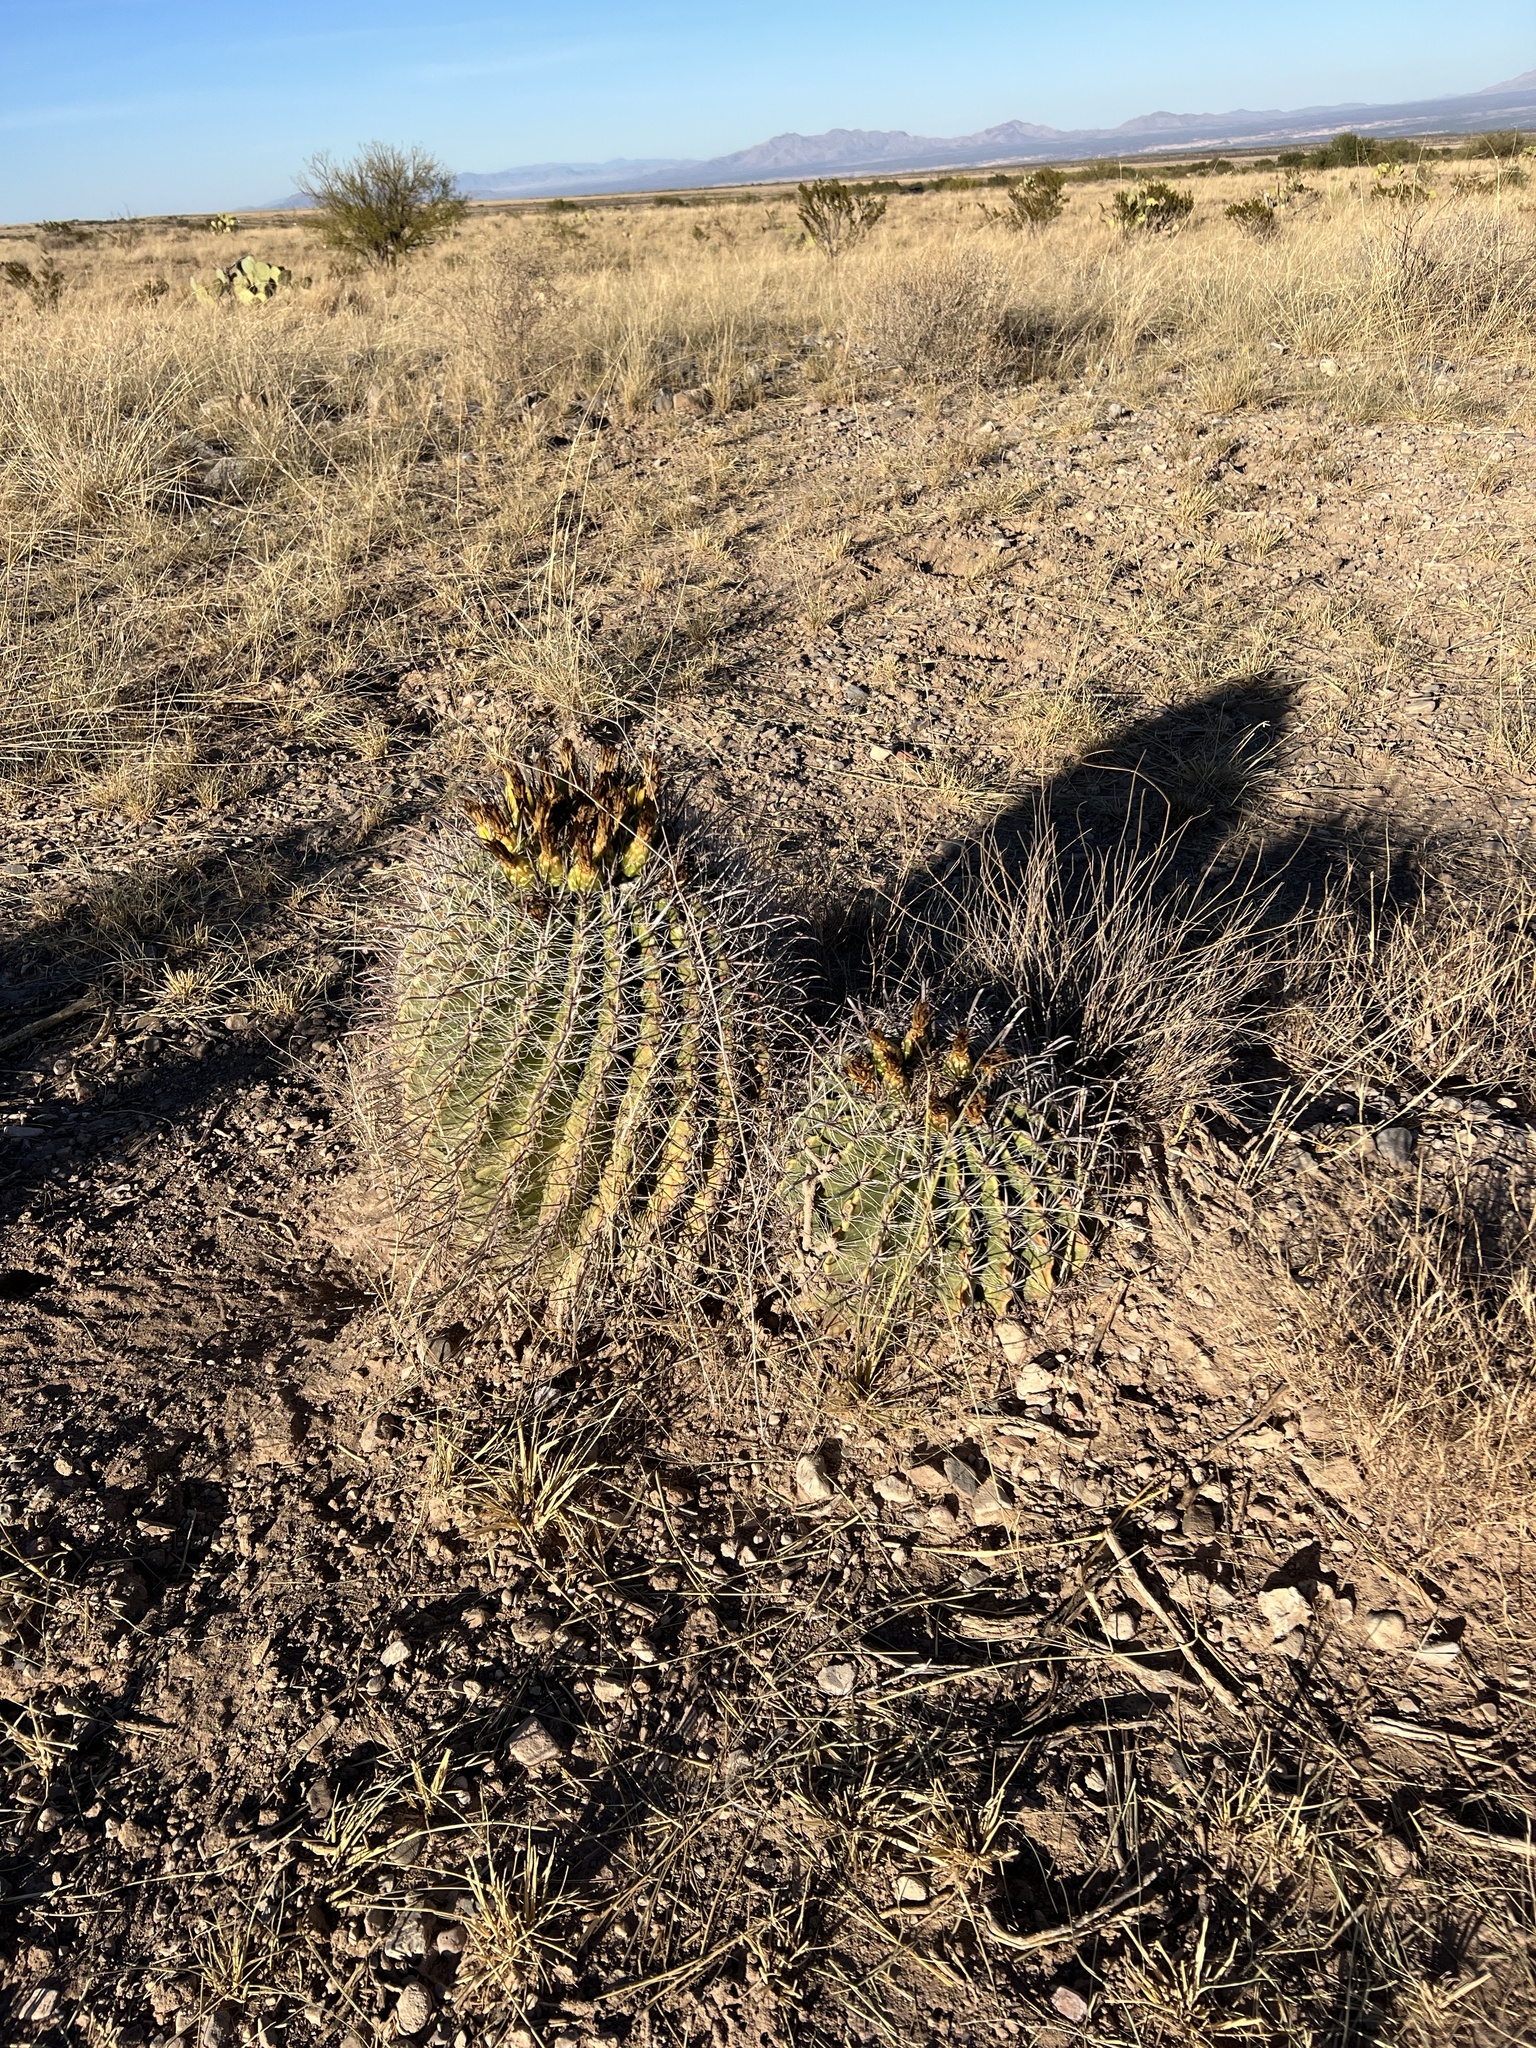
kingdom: Plantae
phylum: Tracheophyta
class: Magnoliopsida
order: Caryophyllales
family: Cactaceae
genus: Ferocactus
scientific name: Ferocactus wislizeni
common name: Candy barrel cactus
